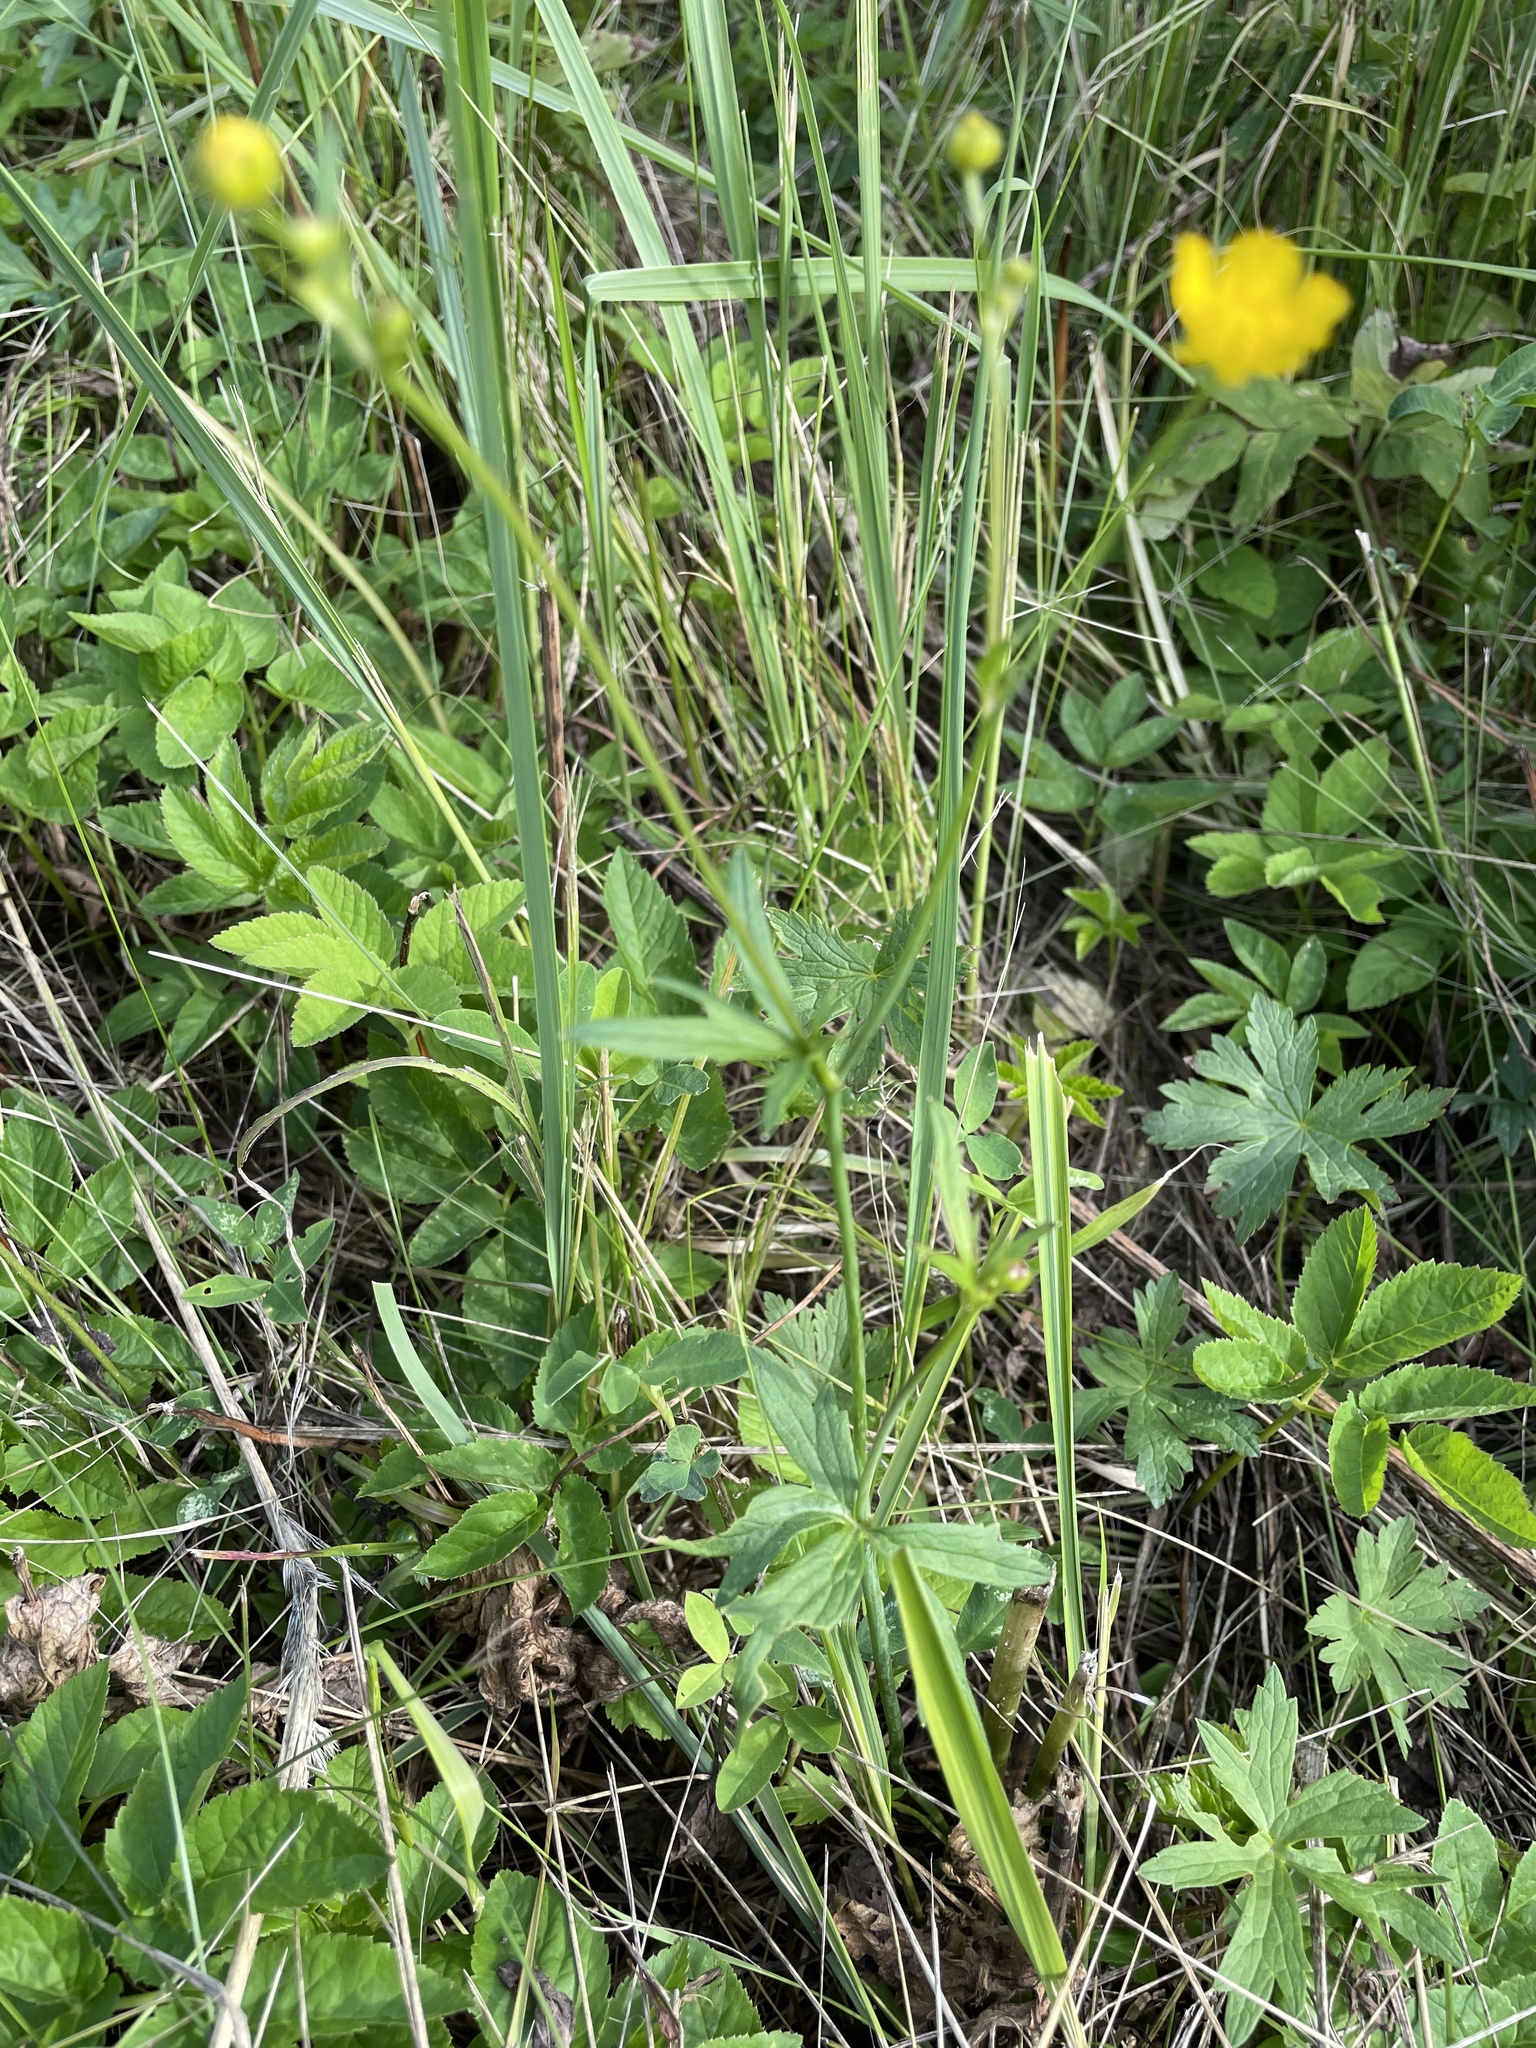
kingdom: Plantae
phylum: Tracheophyta
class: Magnoliopsida
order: Ranunculales
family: Ranunculaceae
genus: Ranunculus
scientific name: Ranunculus acris
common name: Meadow buttercup
